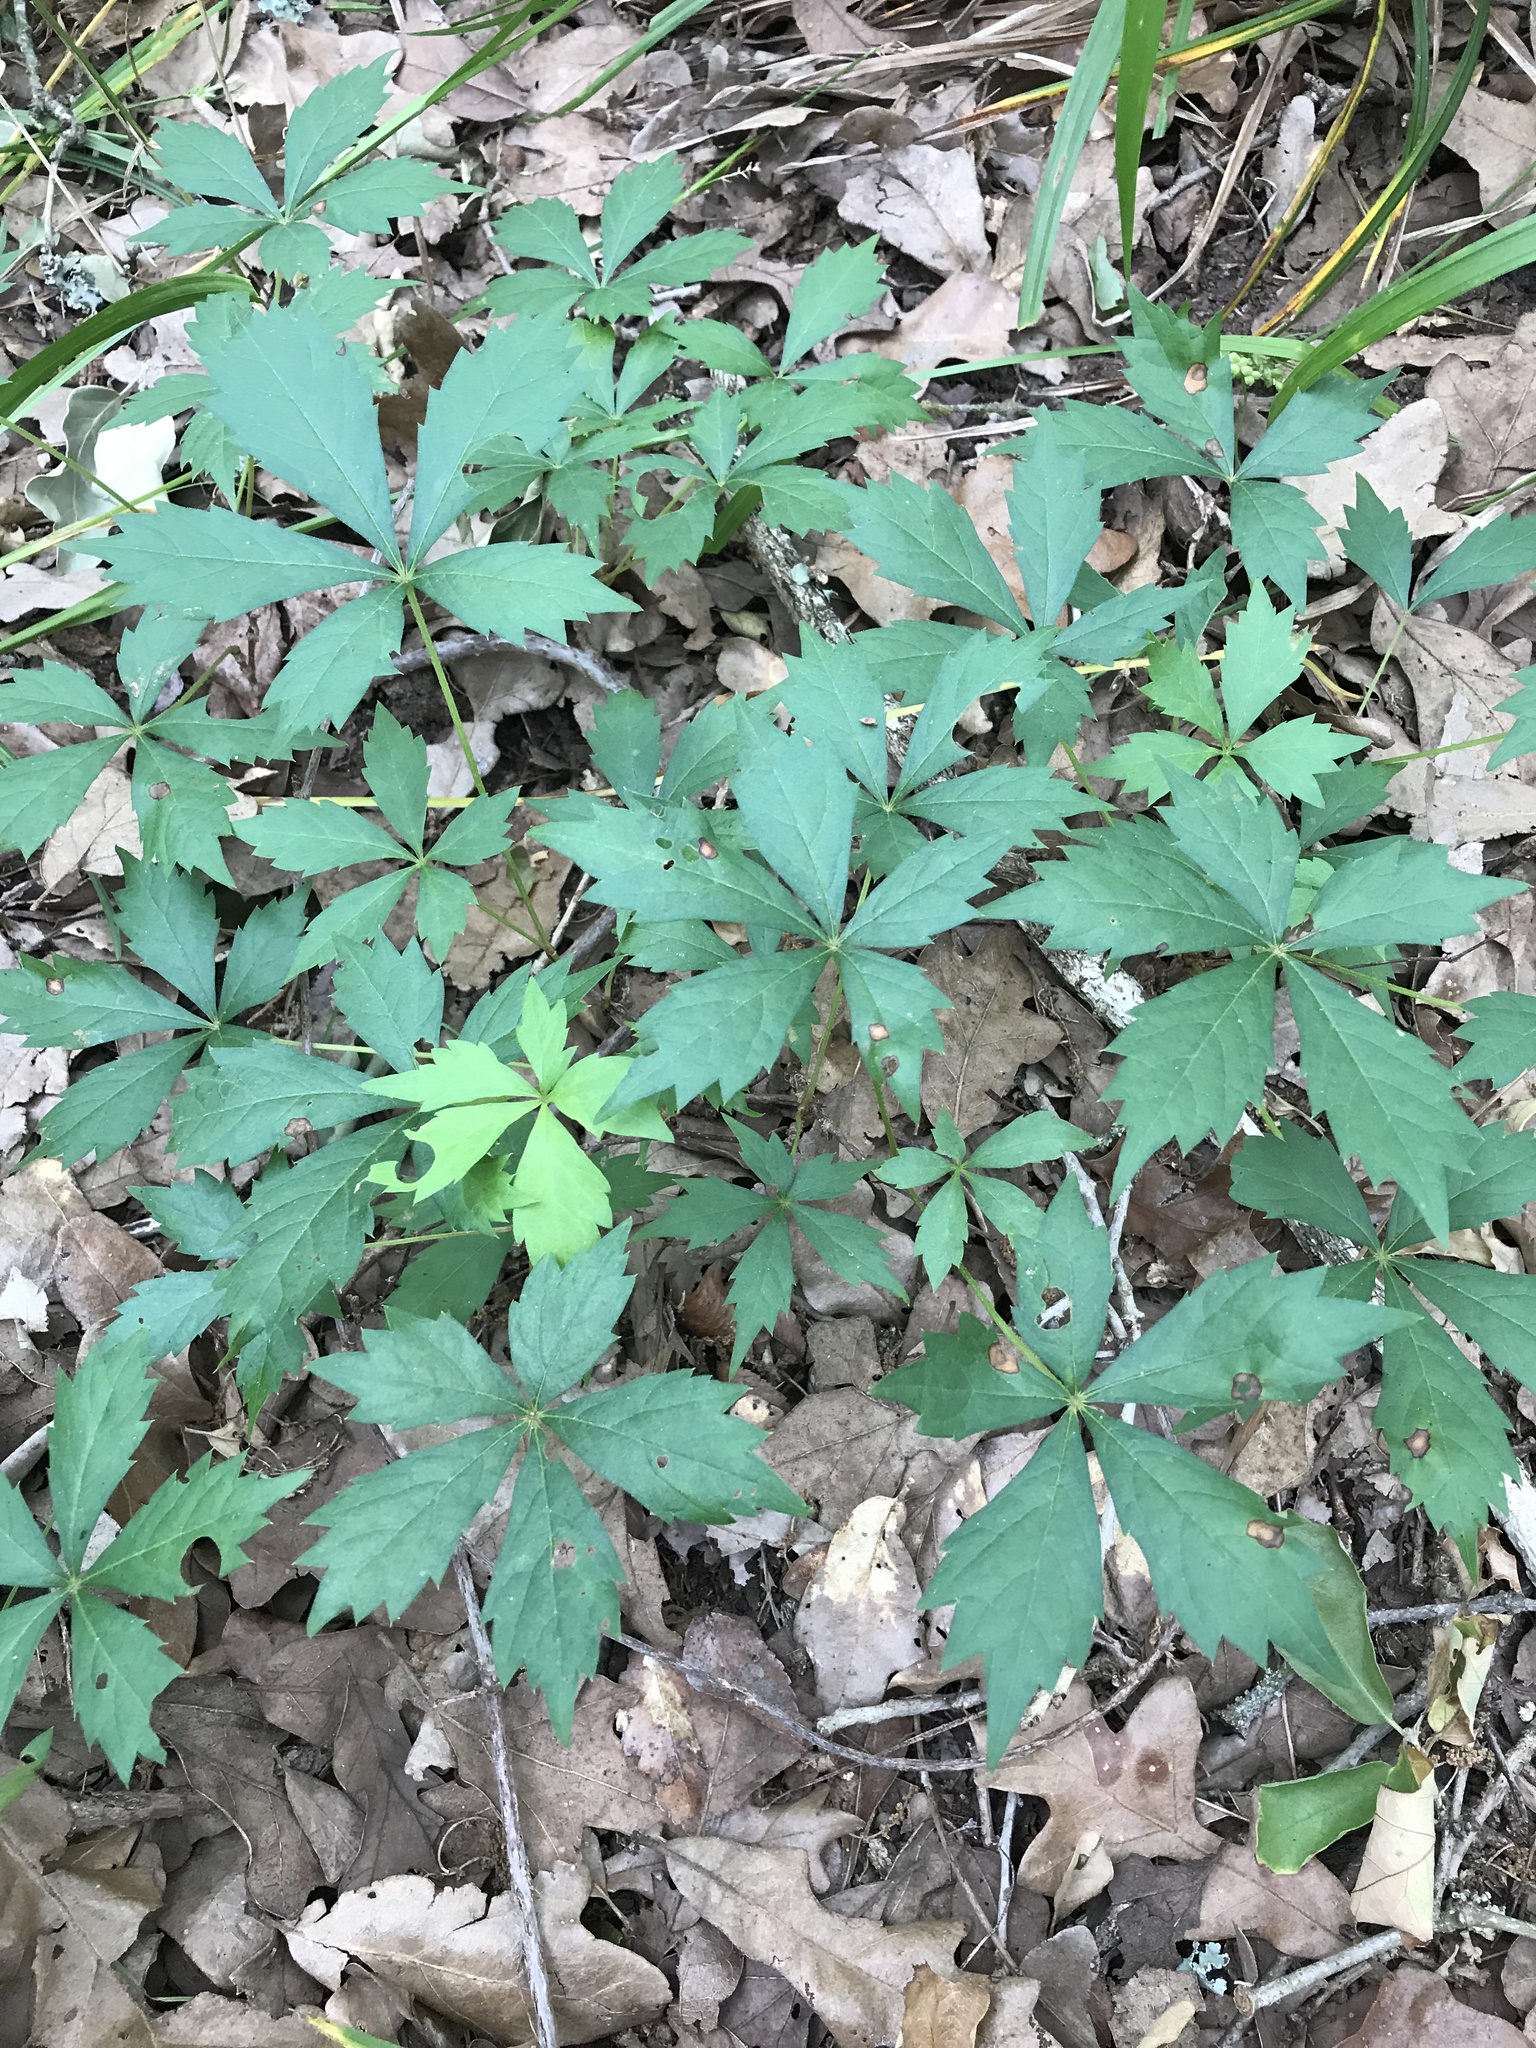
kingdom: Plantae
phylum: Tracheophyta
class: Magnoliopsida
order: Vitales
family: Vitaceae
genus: Parthenocissus
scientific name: Parthenocissus quinquefolia
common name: Virginia-creeper
